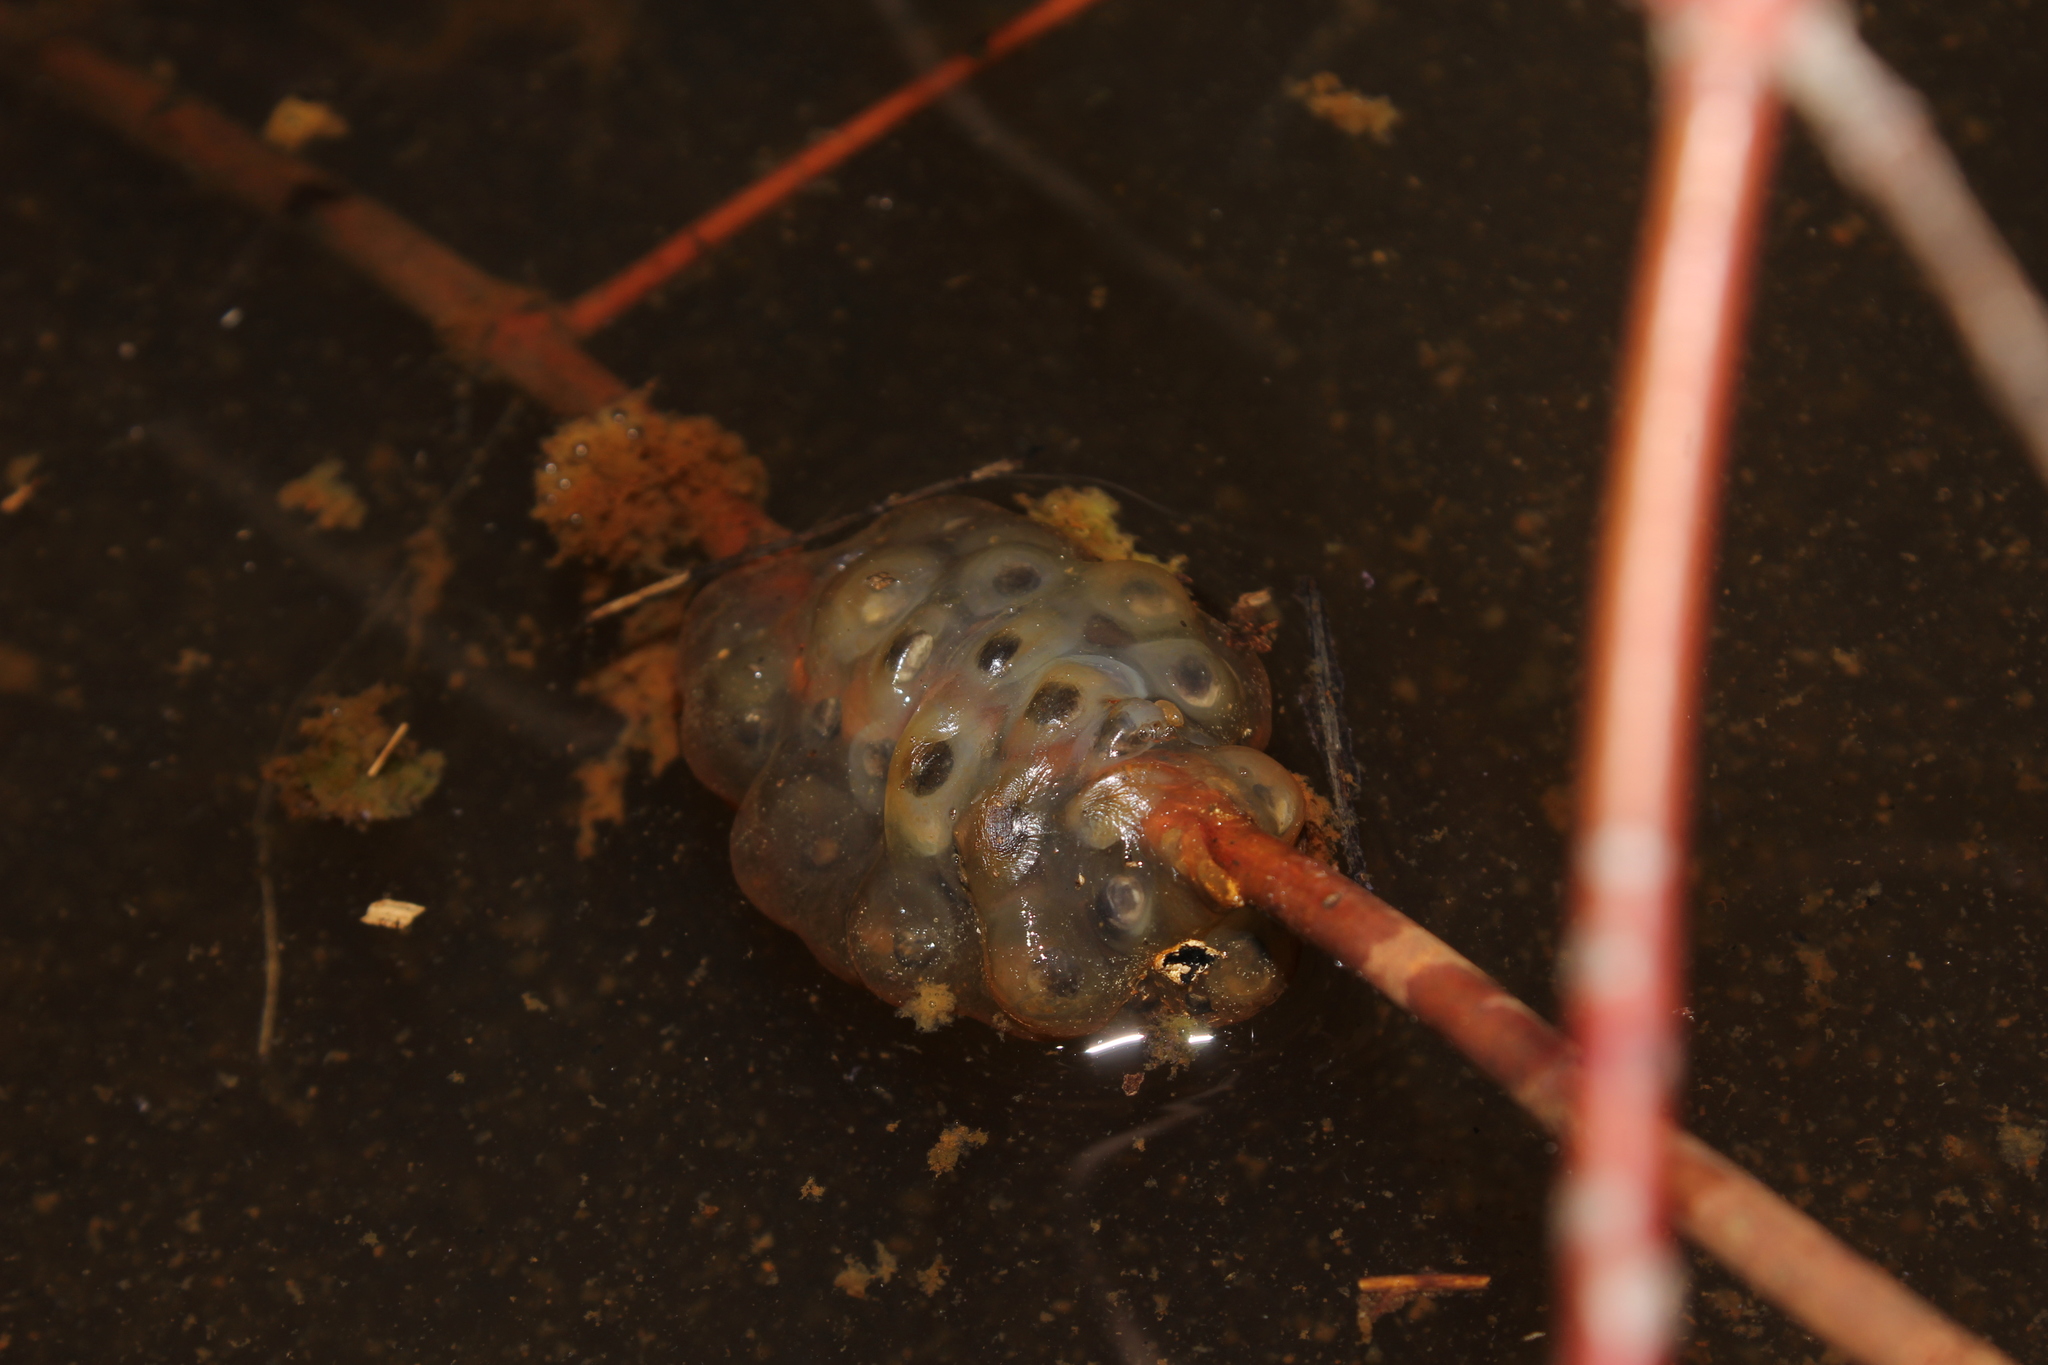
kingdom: Animalia
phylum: Chordata
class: Amphibia
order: Caudata
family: Ambystomatidae
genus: Ambystoma
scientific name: Ambystoma maculatum
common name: Spotted salamander
